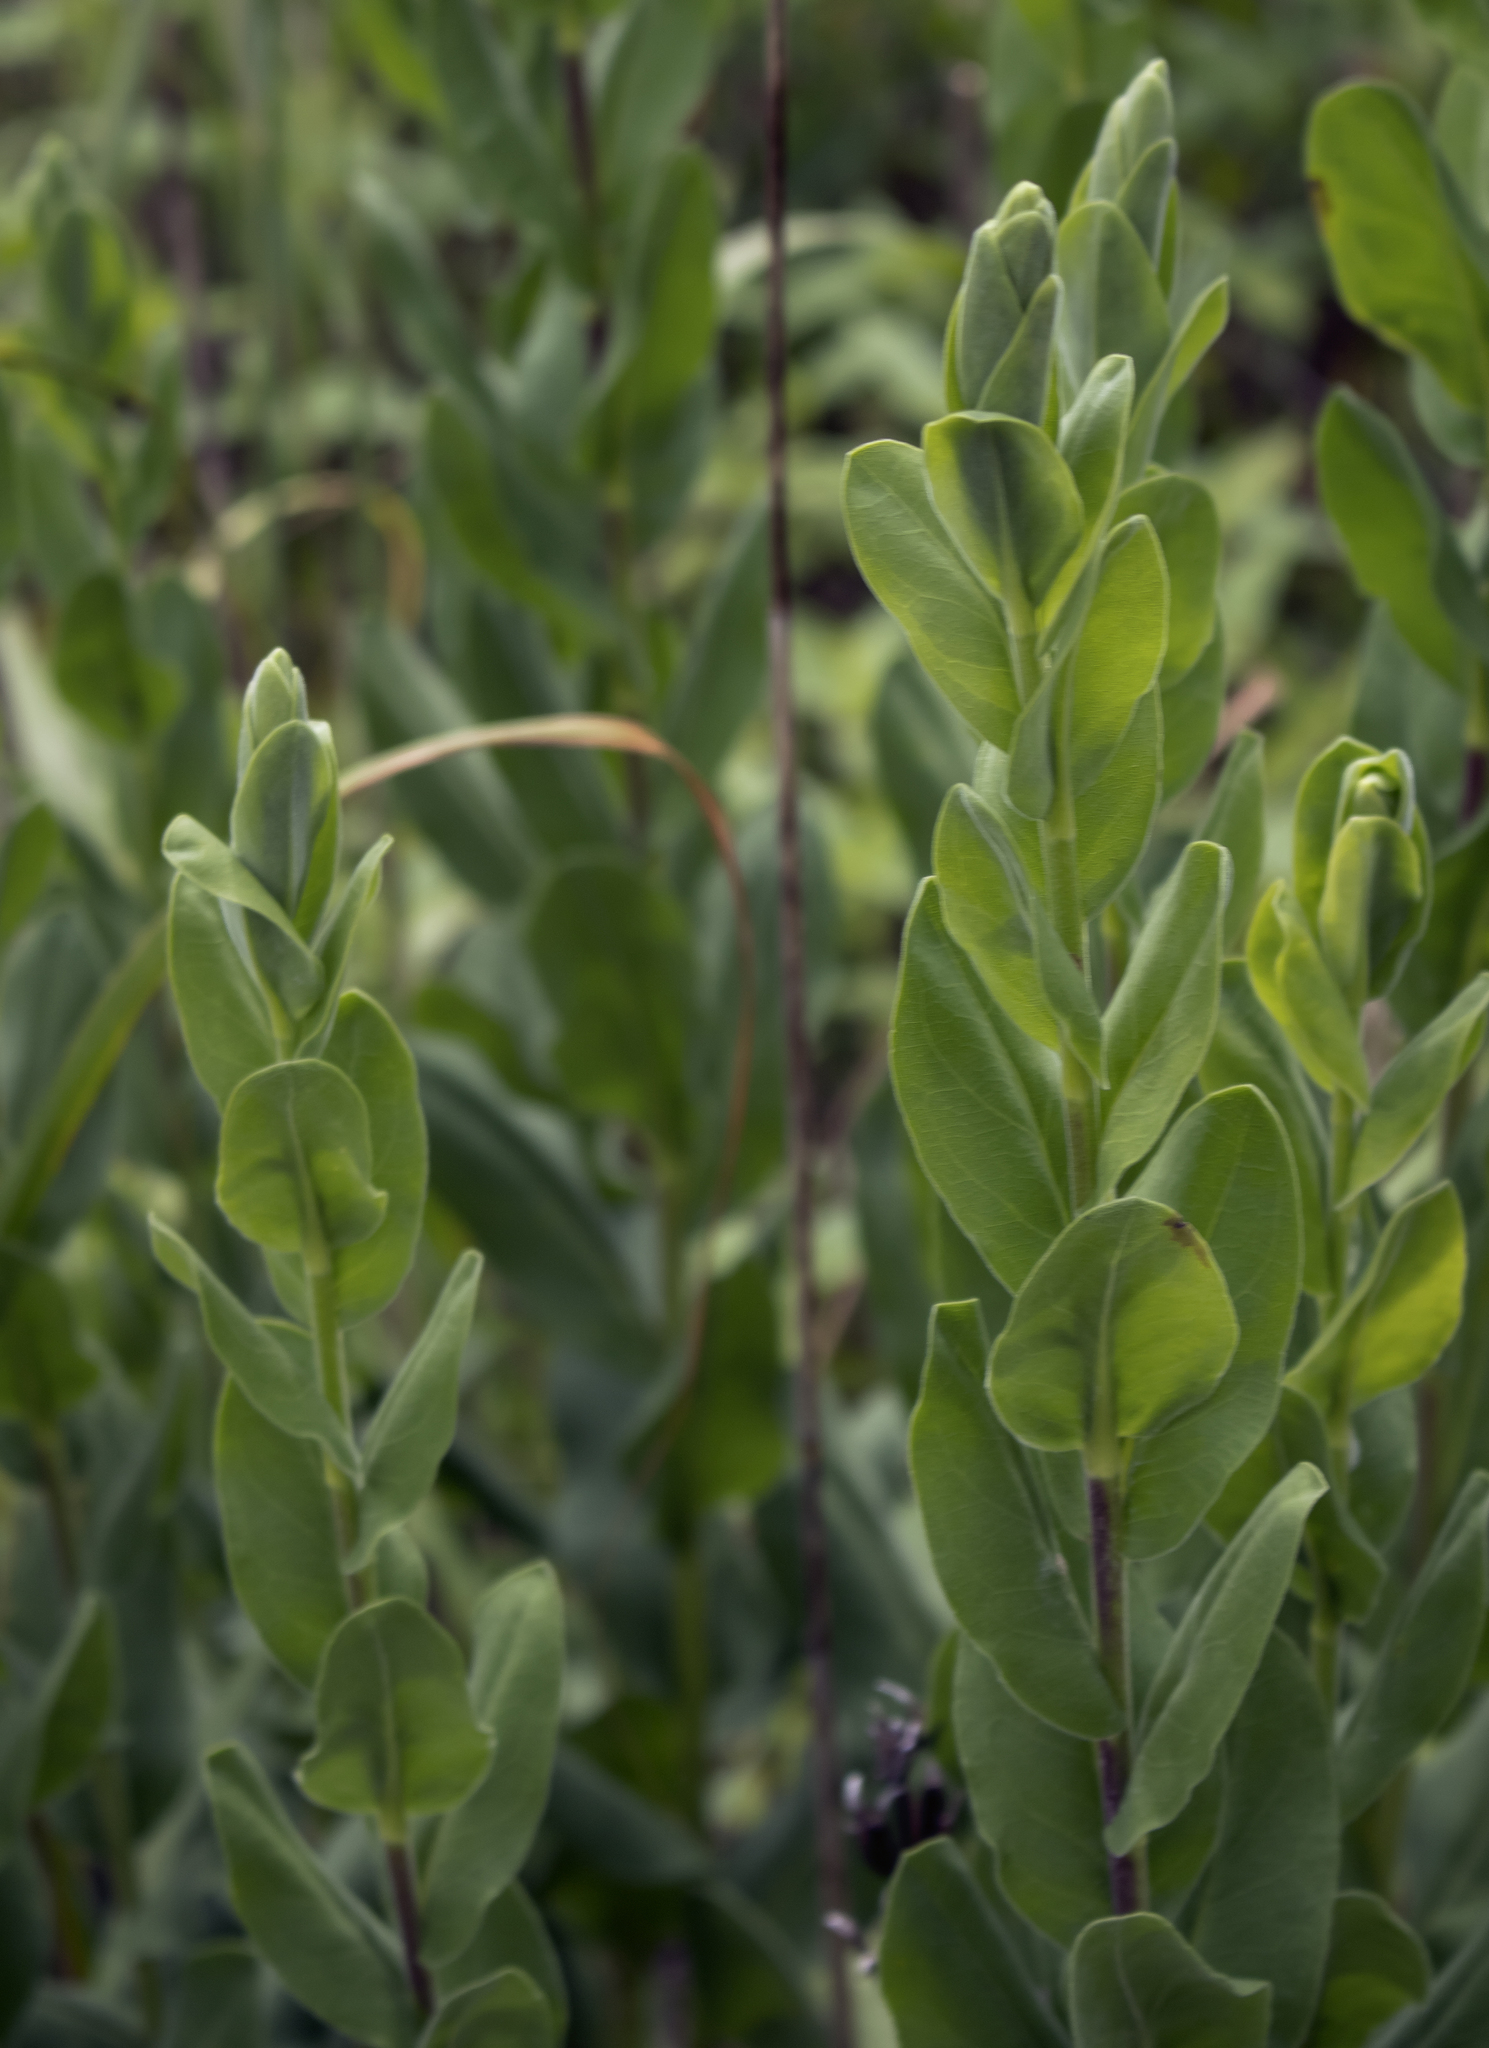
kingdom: Plantae
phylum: Tracheophyta
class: Magnoliopsida
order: Asterales
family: Asteraceae
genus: Solidago
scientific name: Solidago rigida
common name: Rigid goldenrod
